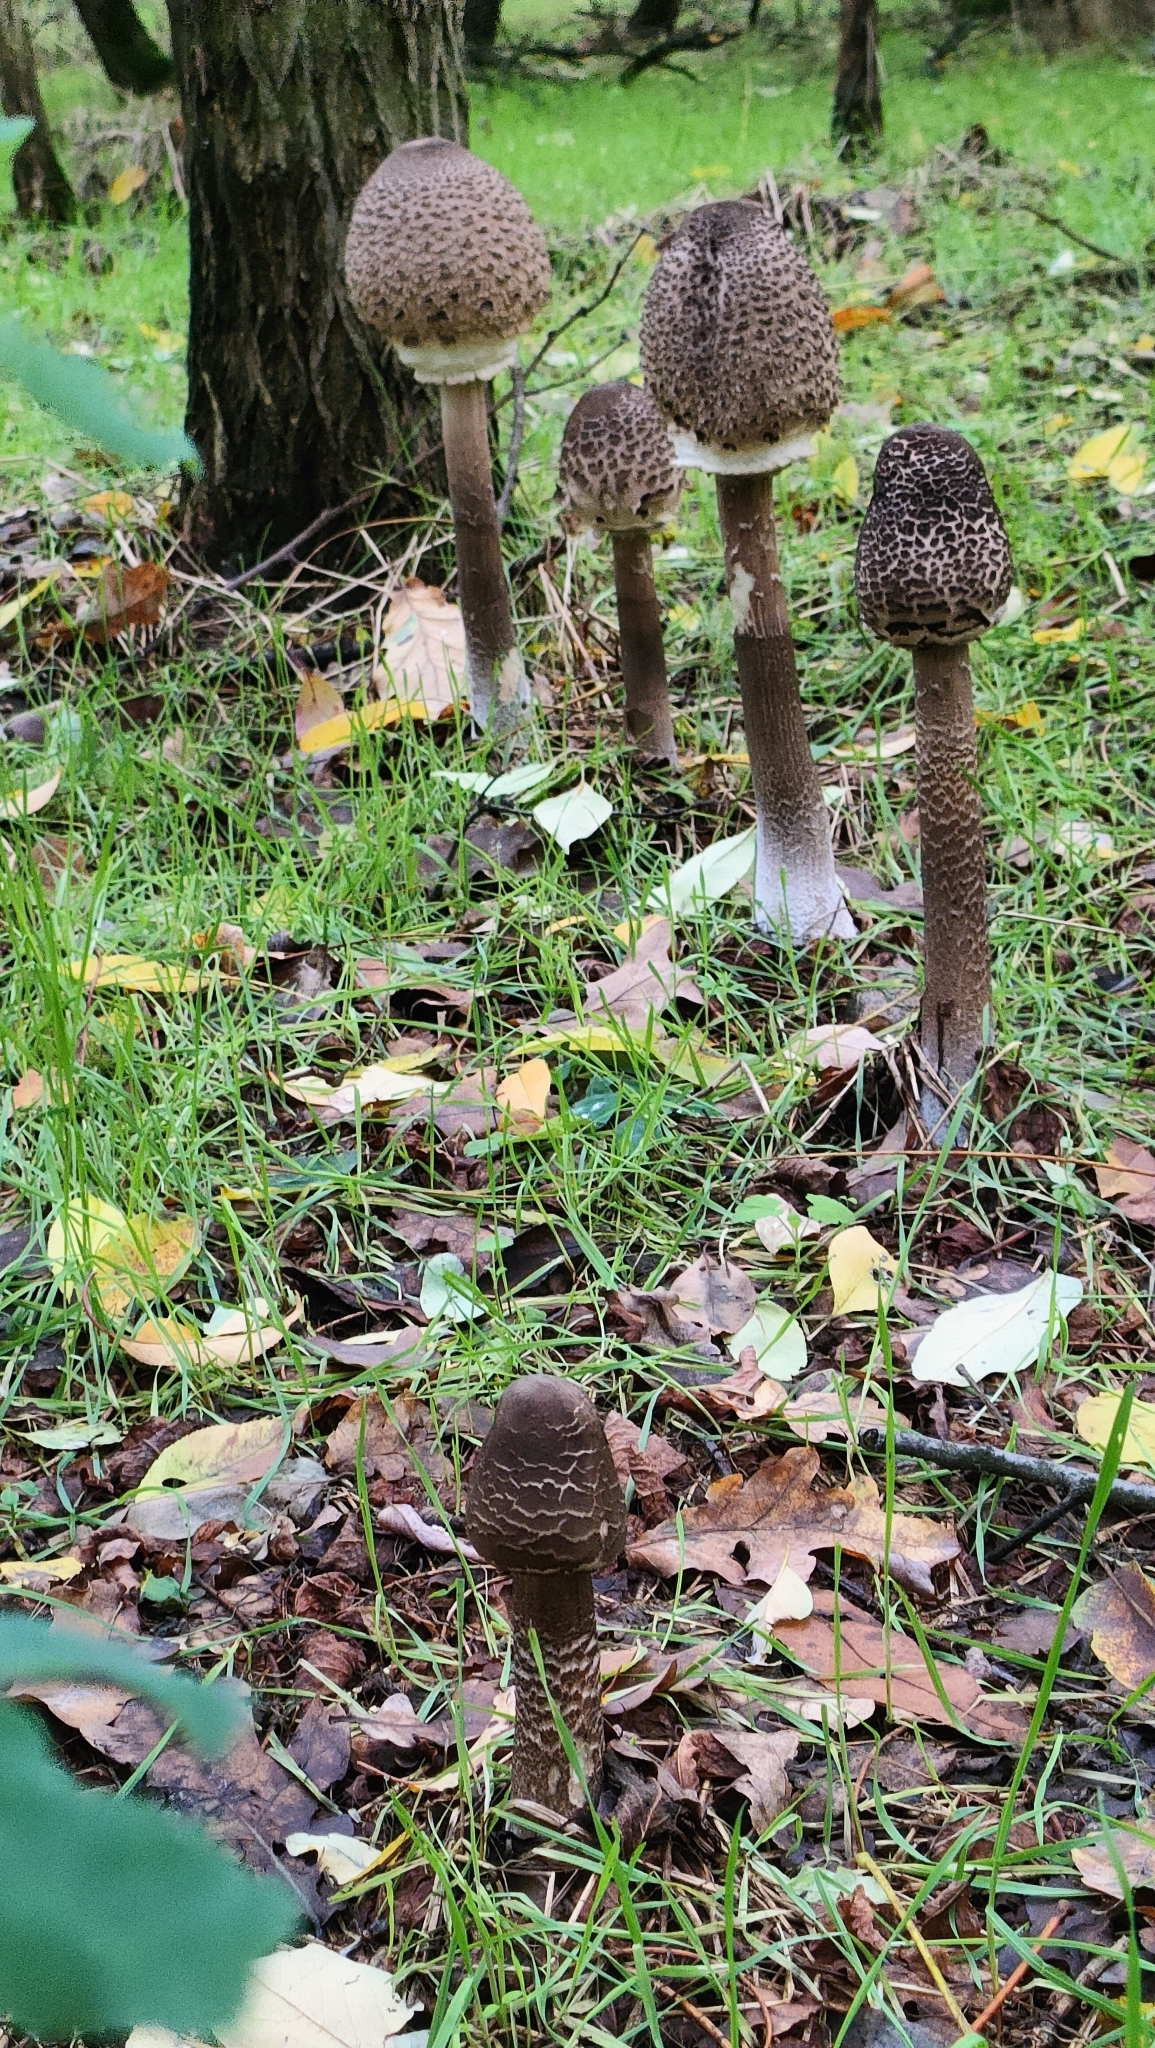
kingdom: Fungi
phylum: Basidiomycota
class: Agaricomycetes
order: Agaricales
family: Agaricaceae
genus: Macrolepiota
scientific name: Macrolepiota procera
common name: Parasol
